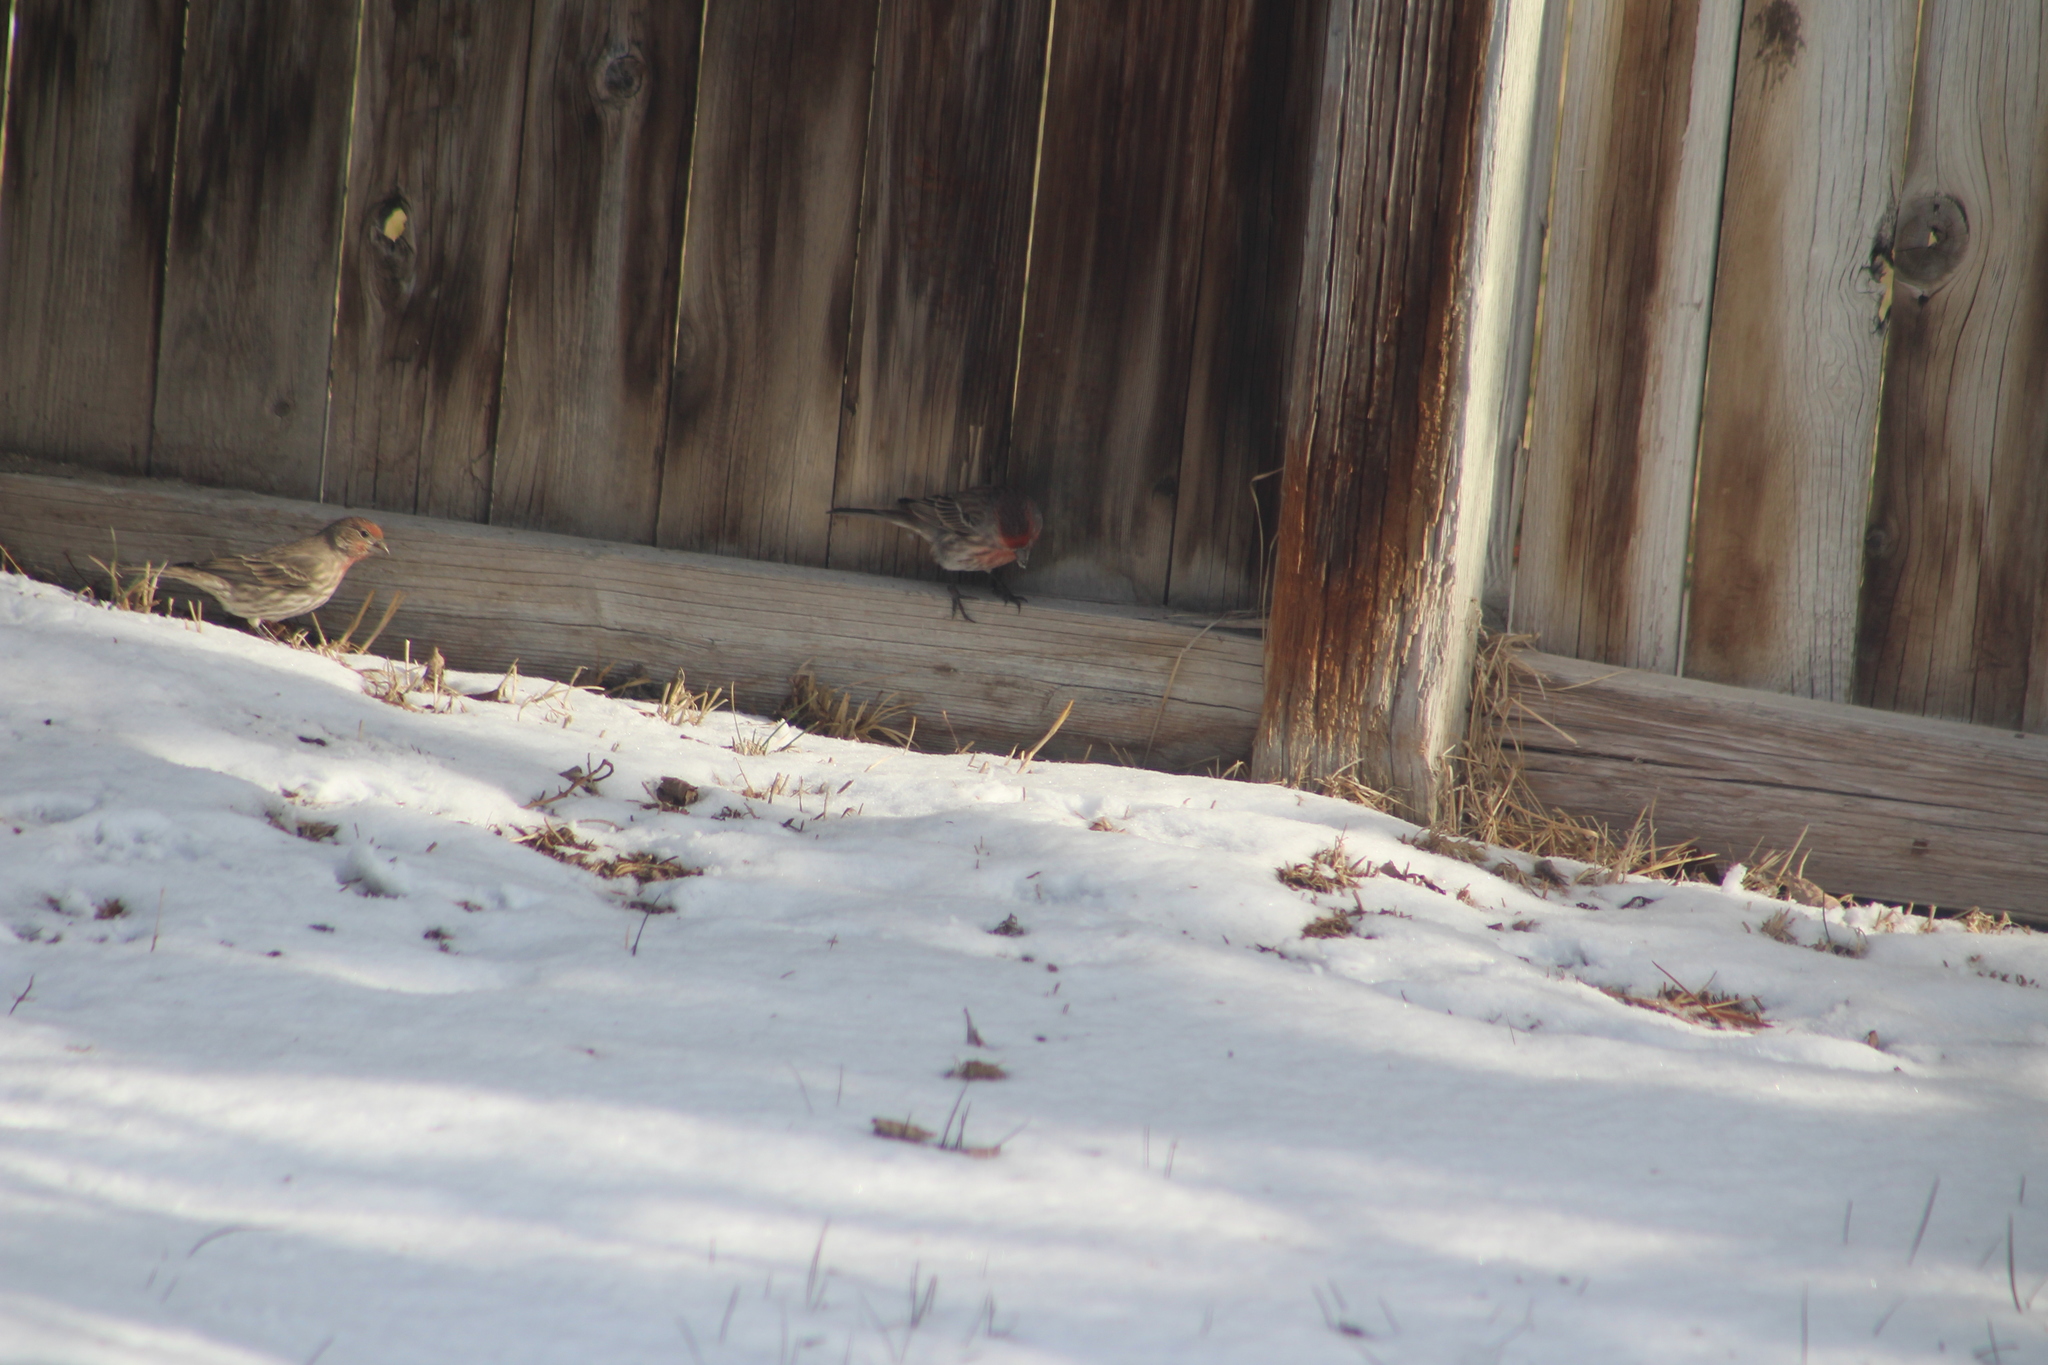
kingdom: Animalia
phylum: Chordata
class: Aves
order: Passeriformes
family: Fringillidae
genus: Haemorhous
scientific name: Haemorhous mexicanus
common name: House finch
